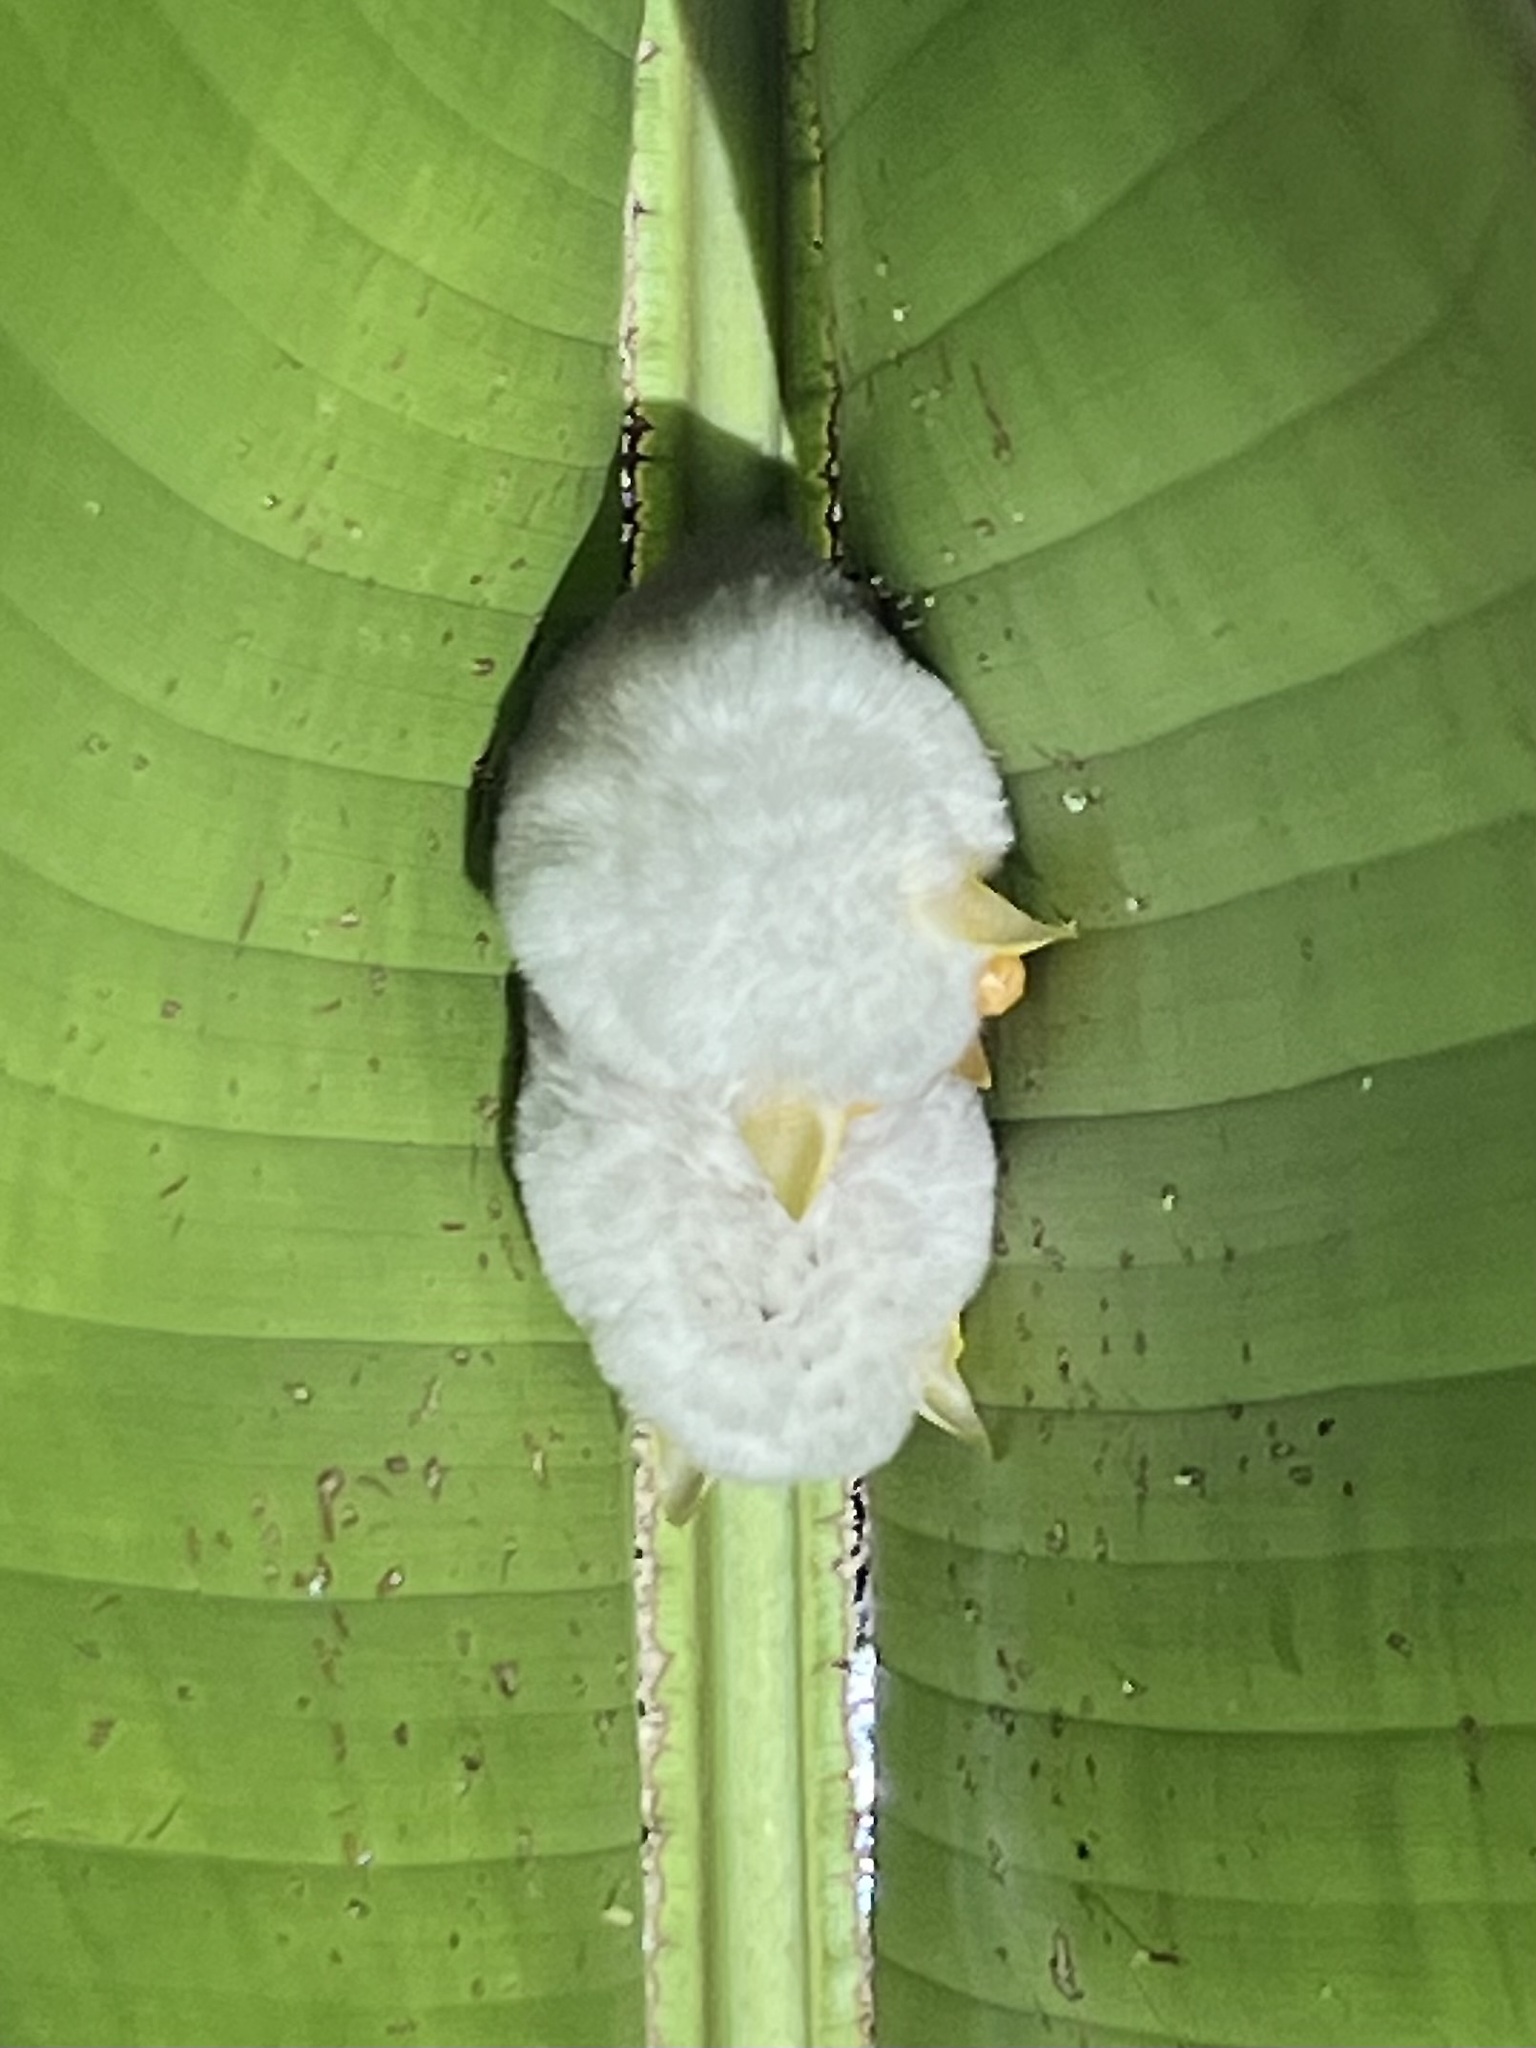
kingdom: Animalia
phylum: Chordata
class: Mammalia
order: Chiroptera
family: Phyllostomidae
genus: Ectophylla
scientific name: Ectophylla alba
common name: Honduran white bat
